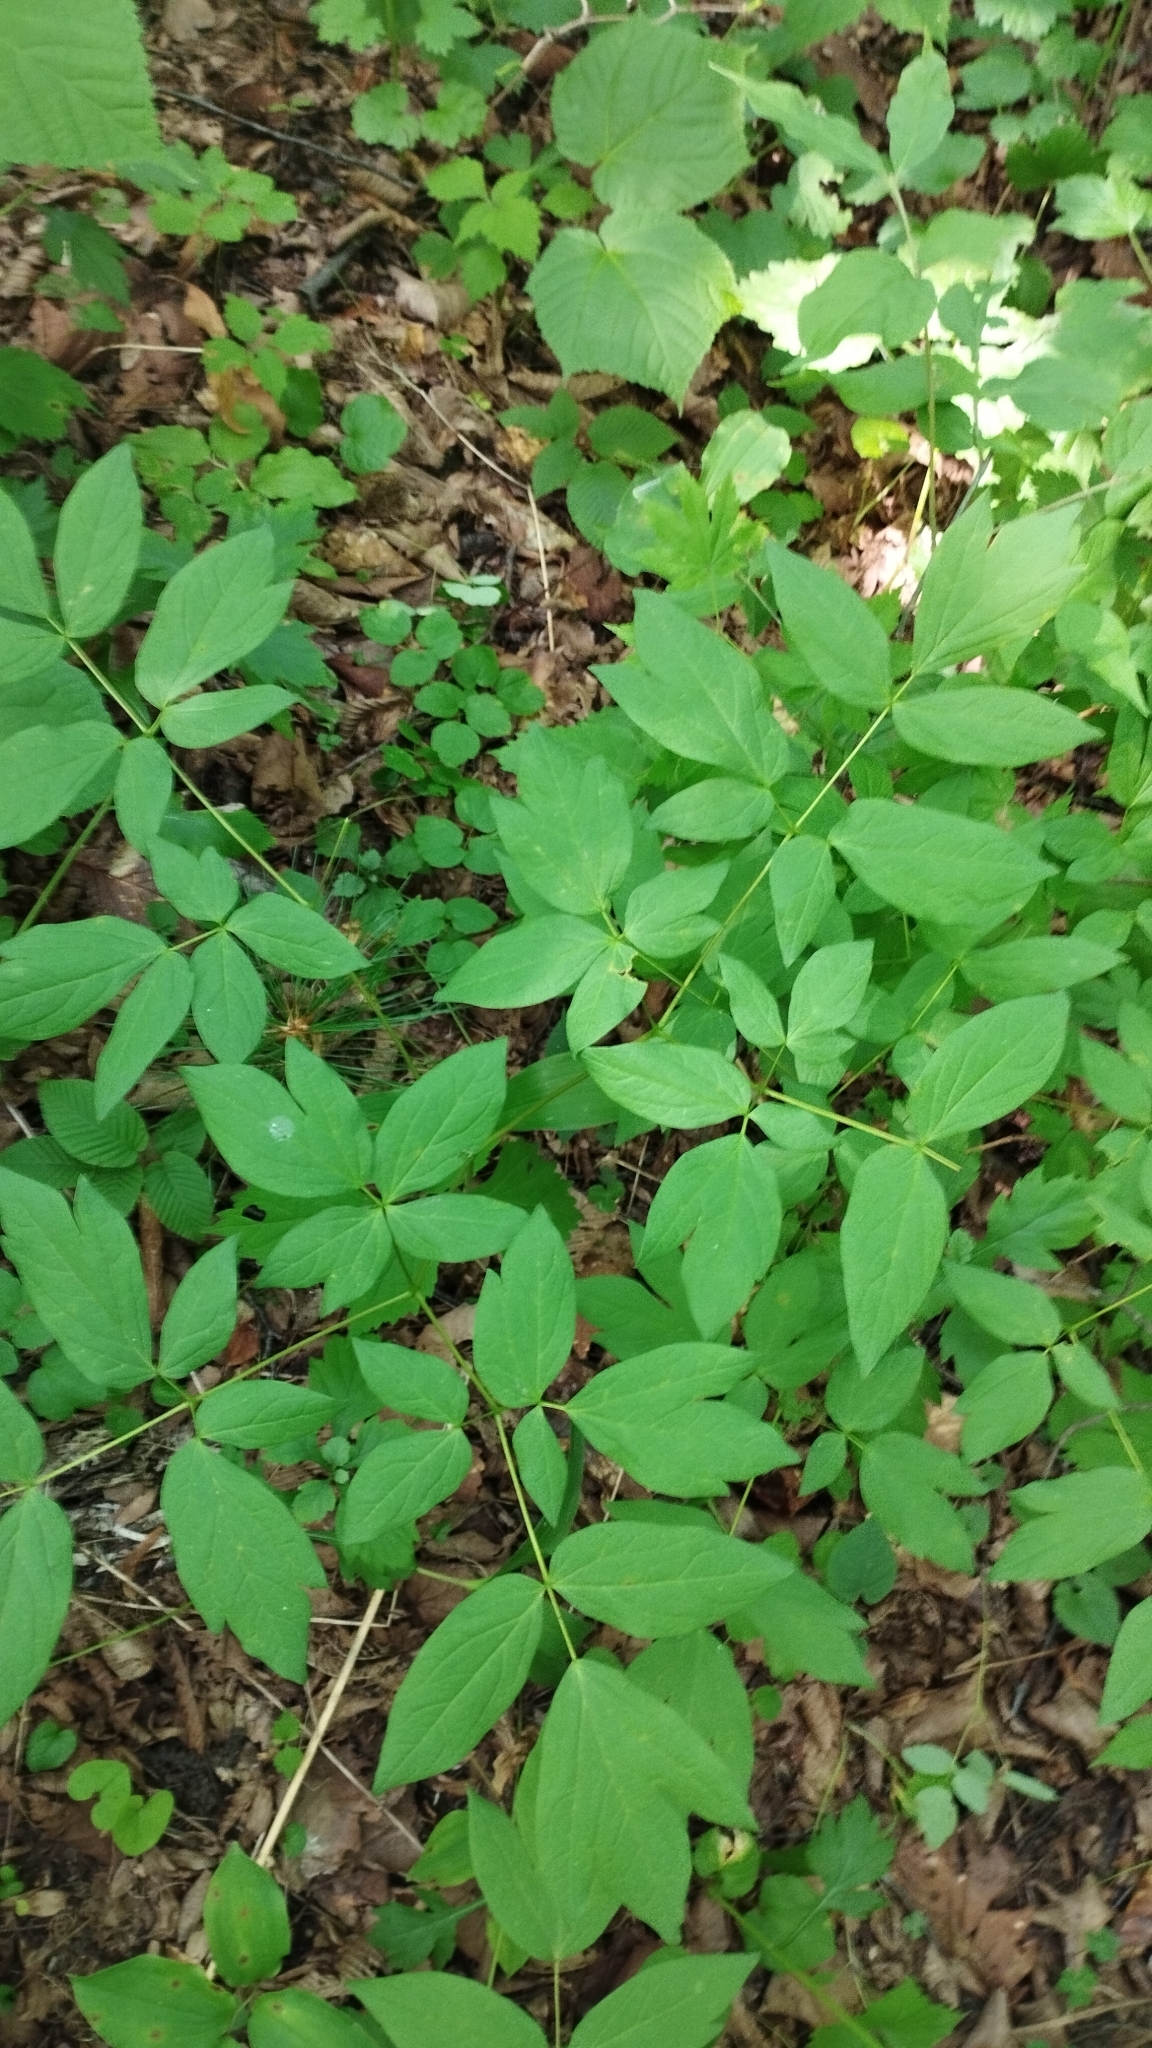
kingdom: Plantae
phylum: Tracheophyta
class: Magnoliopsida
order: Ranunculales
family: Berberidaceae
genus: Caulophyllum
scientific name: Caulophyllum robustum
